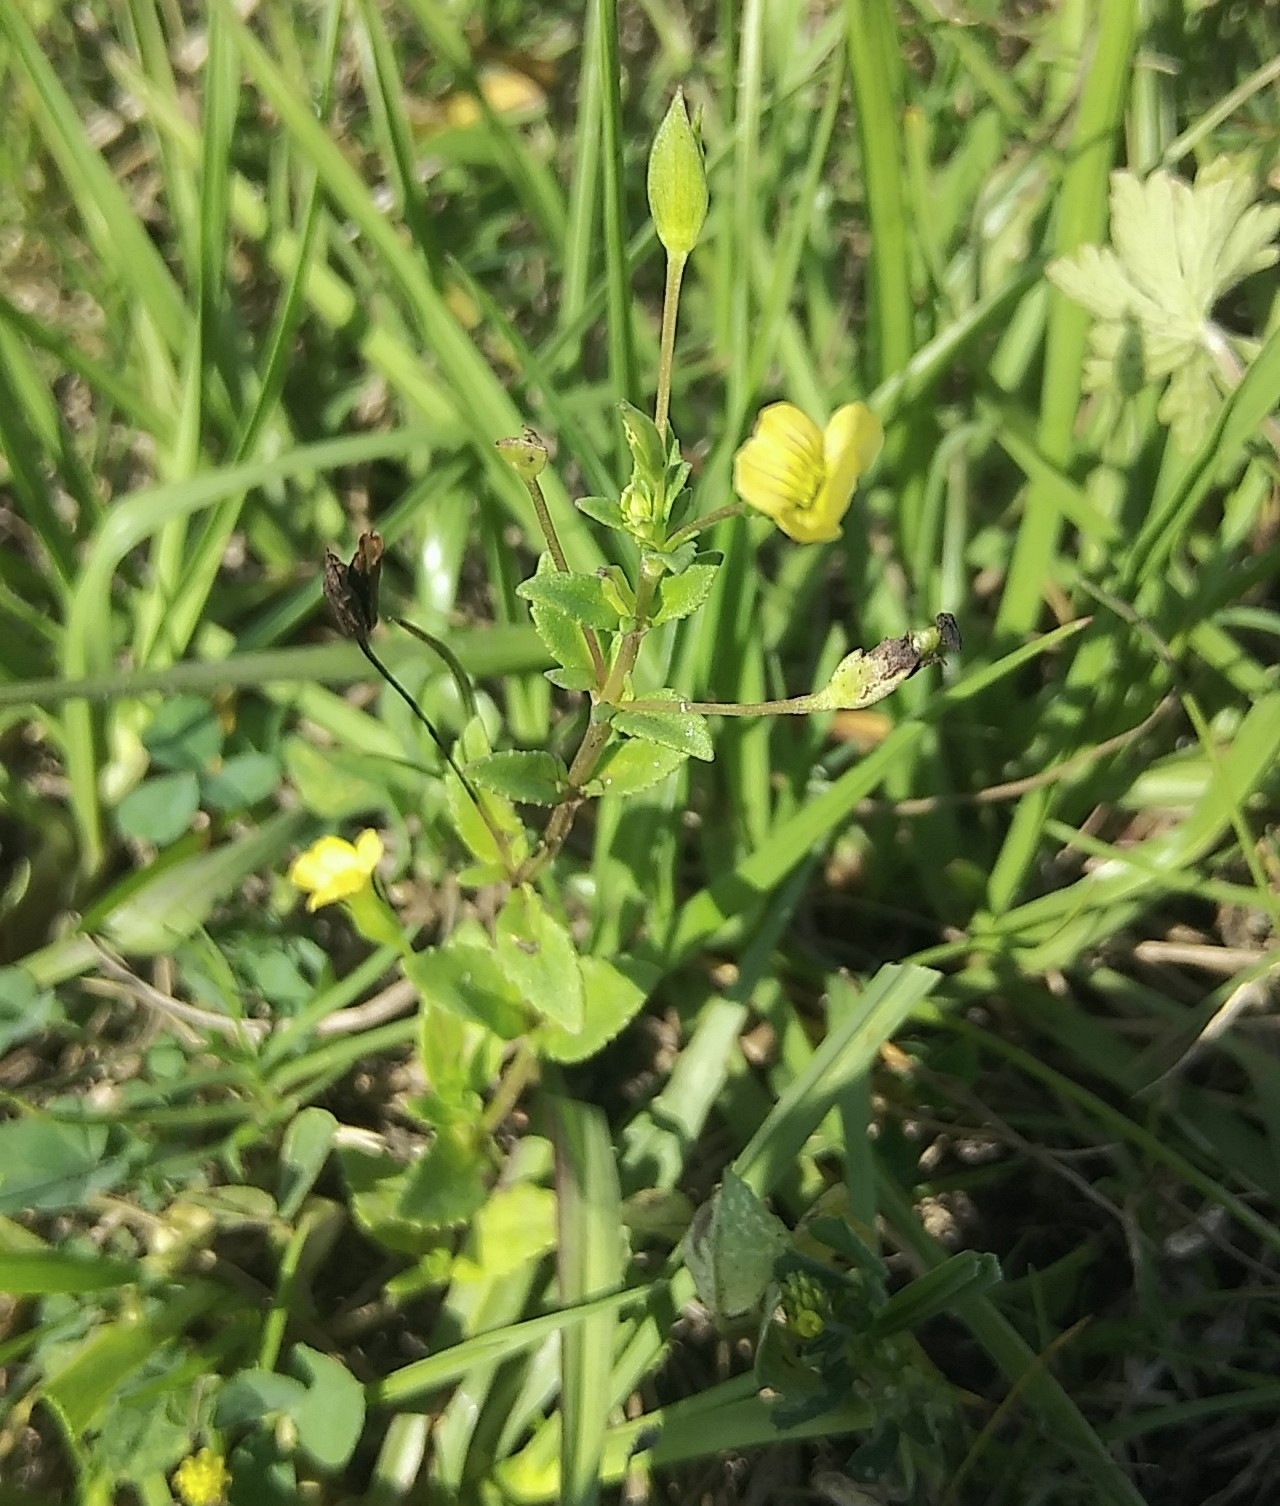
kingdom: Plantae
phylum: Tracheophyta
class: Magnoliopsida
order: Lamiales
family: Plantaginaceae
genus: Mecardonia
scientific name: Mecardonia procumbens
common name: Baby jump-up
